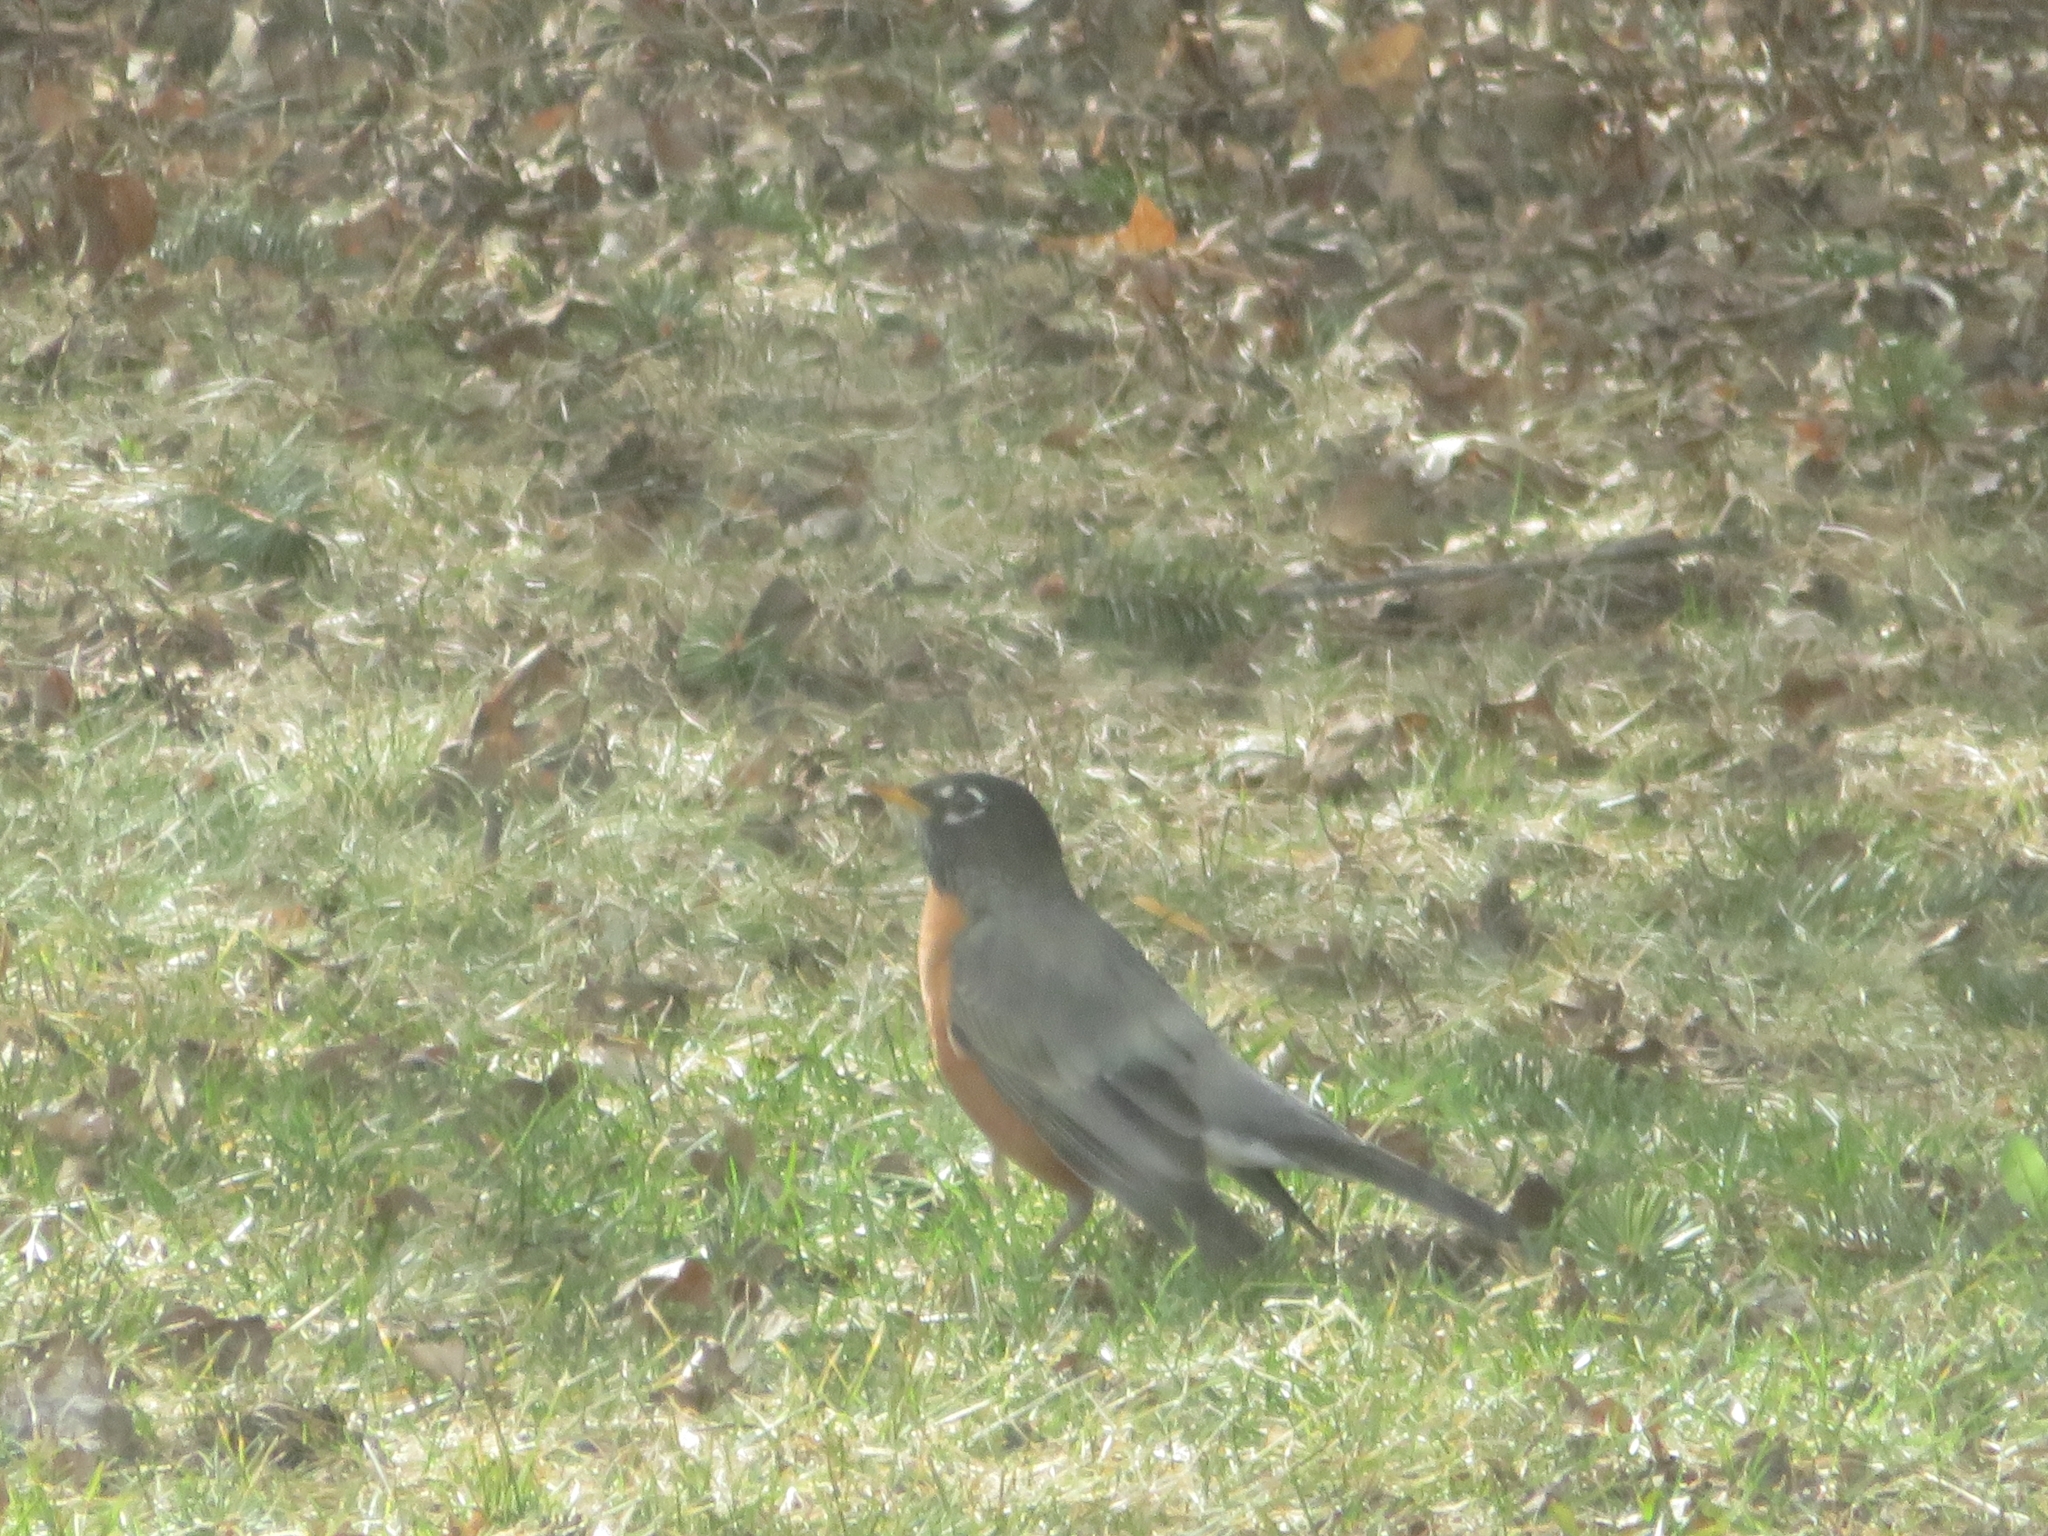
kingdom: Animalia
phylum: Chordata
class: Aves
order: Passeriformes
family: Turdidae
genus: Turdus
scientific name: Turdus migratorius
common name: American robin
